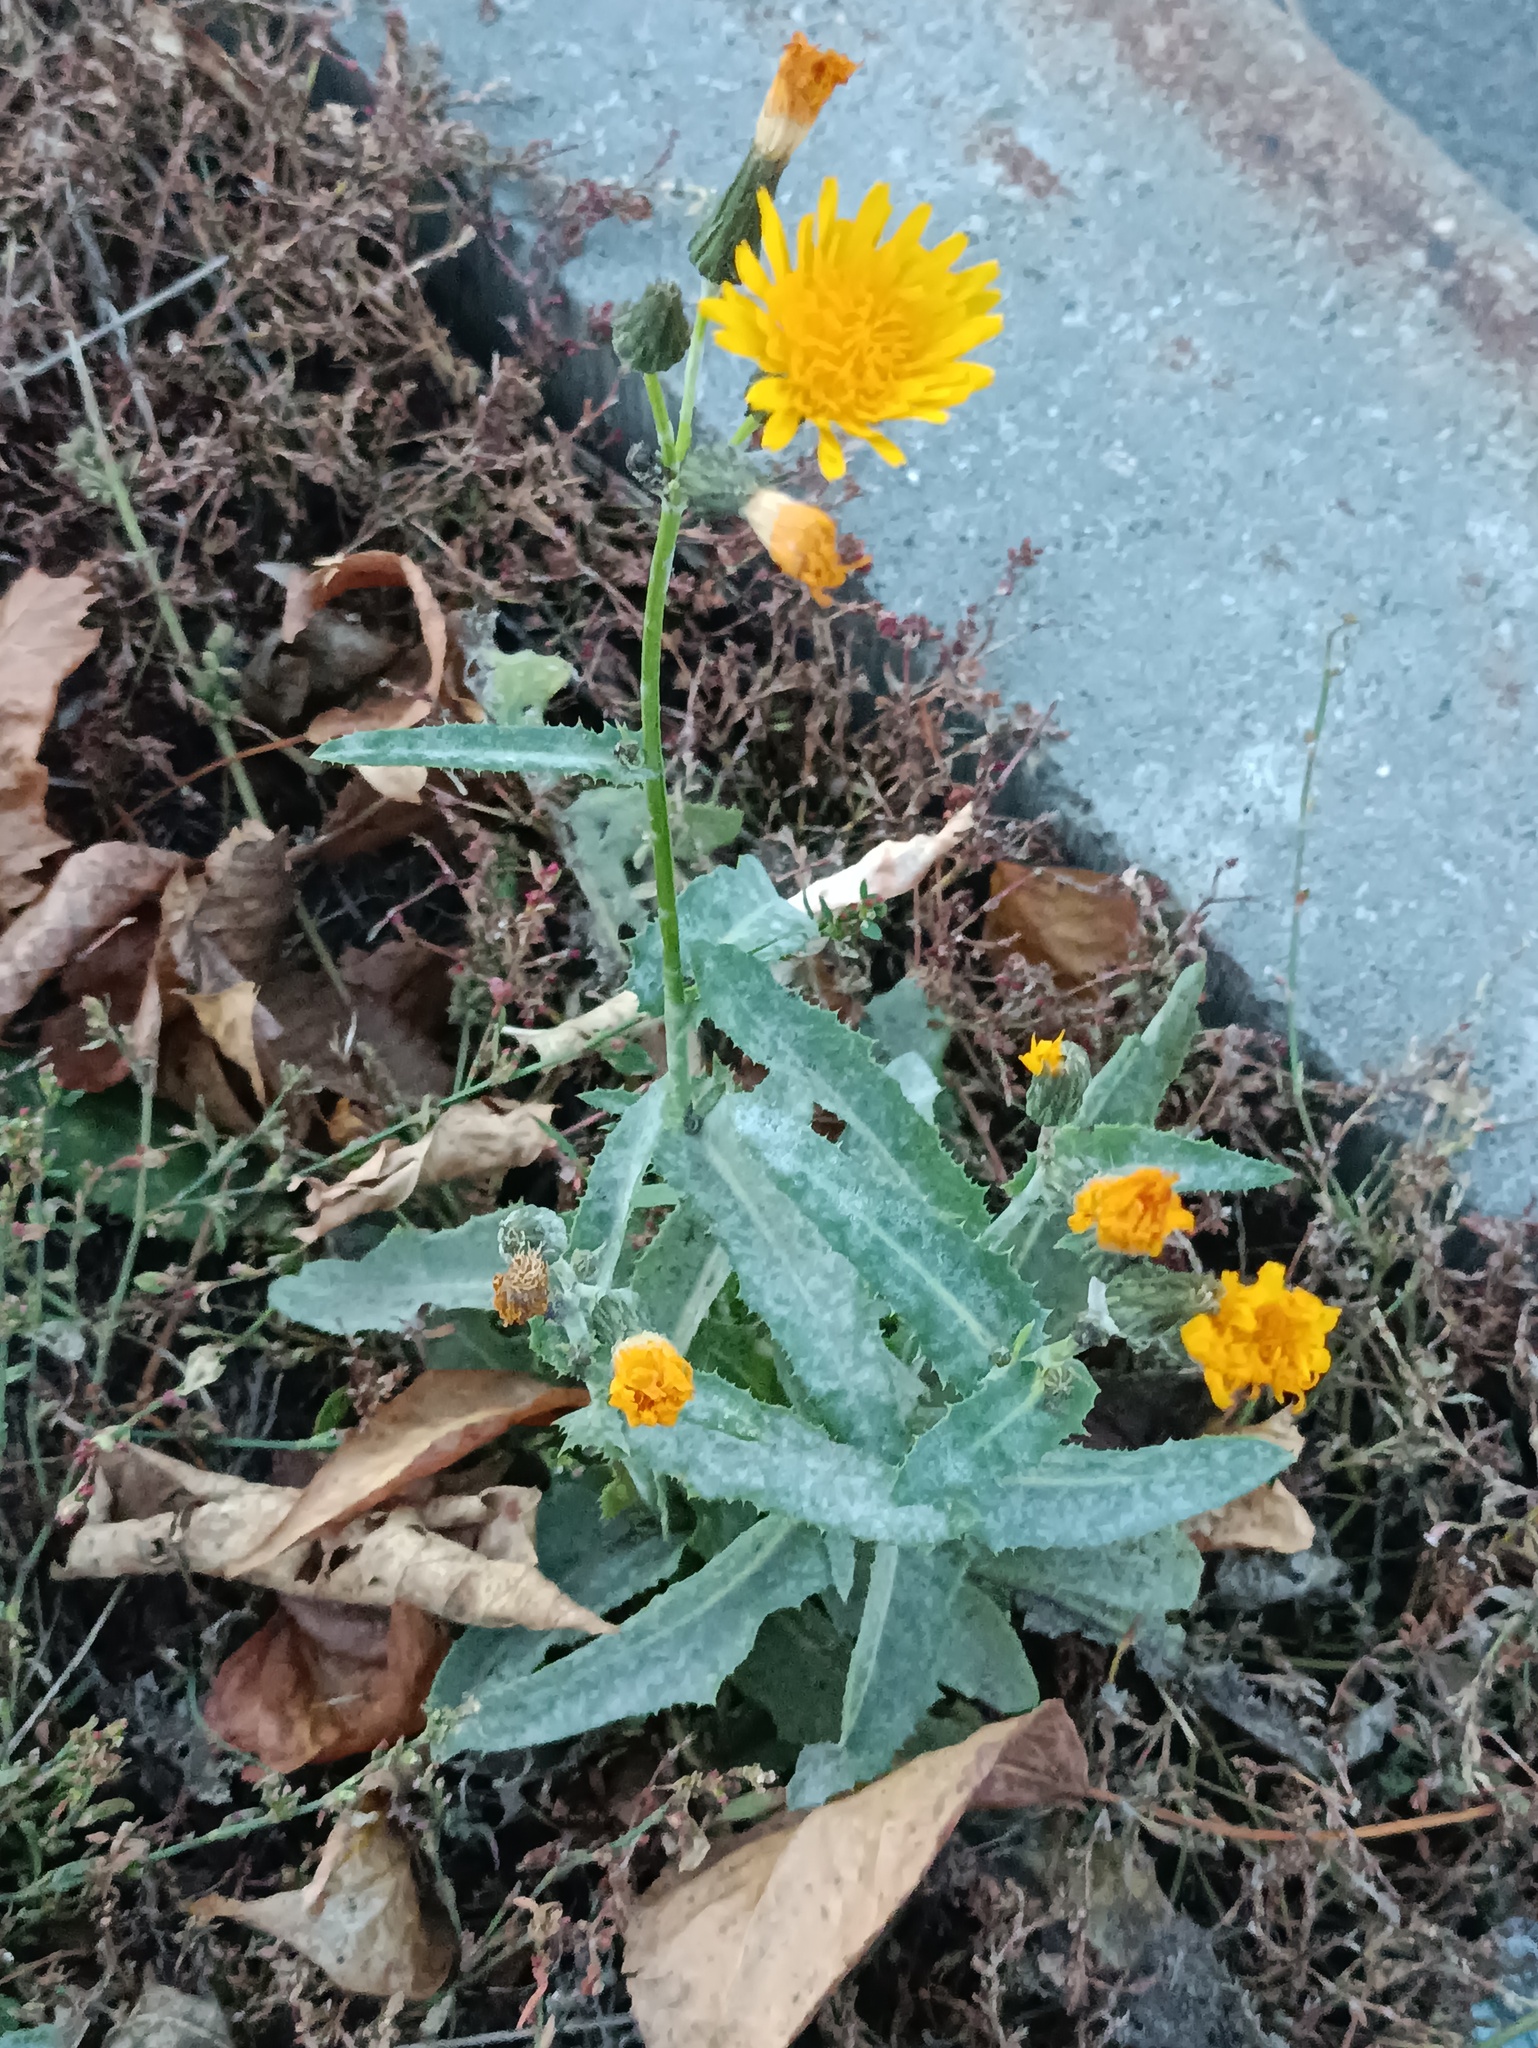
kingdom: Plantae
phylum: Tracheophyta
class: Magnoliopsida
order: Asterales
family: Asteraceae
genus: Sonchus
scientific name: Sonchus arvensis
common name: Perennial sow-thistle
